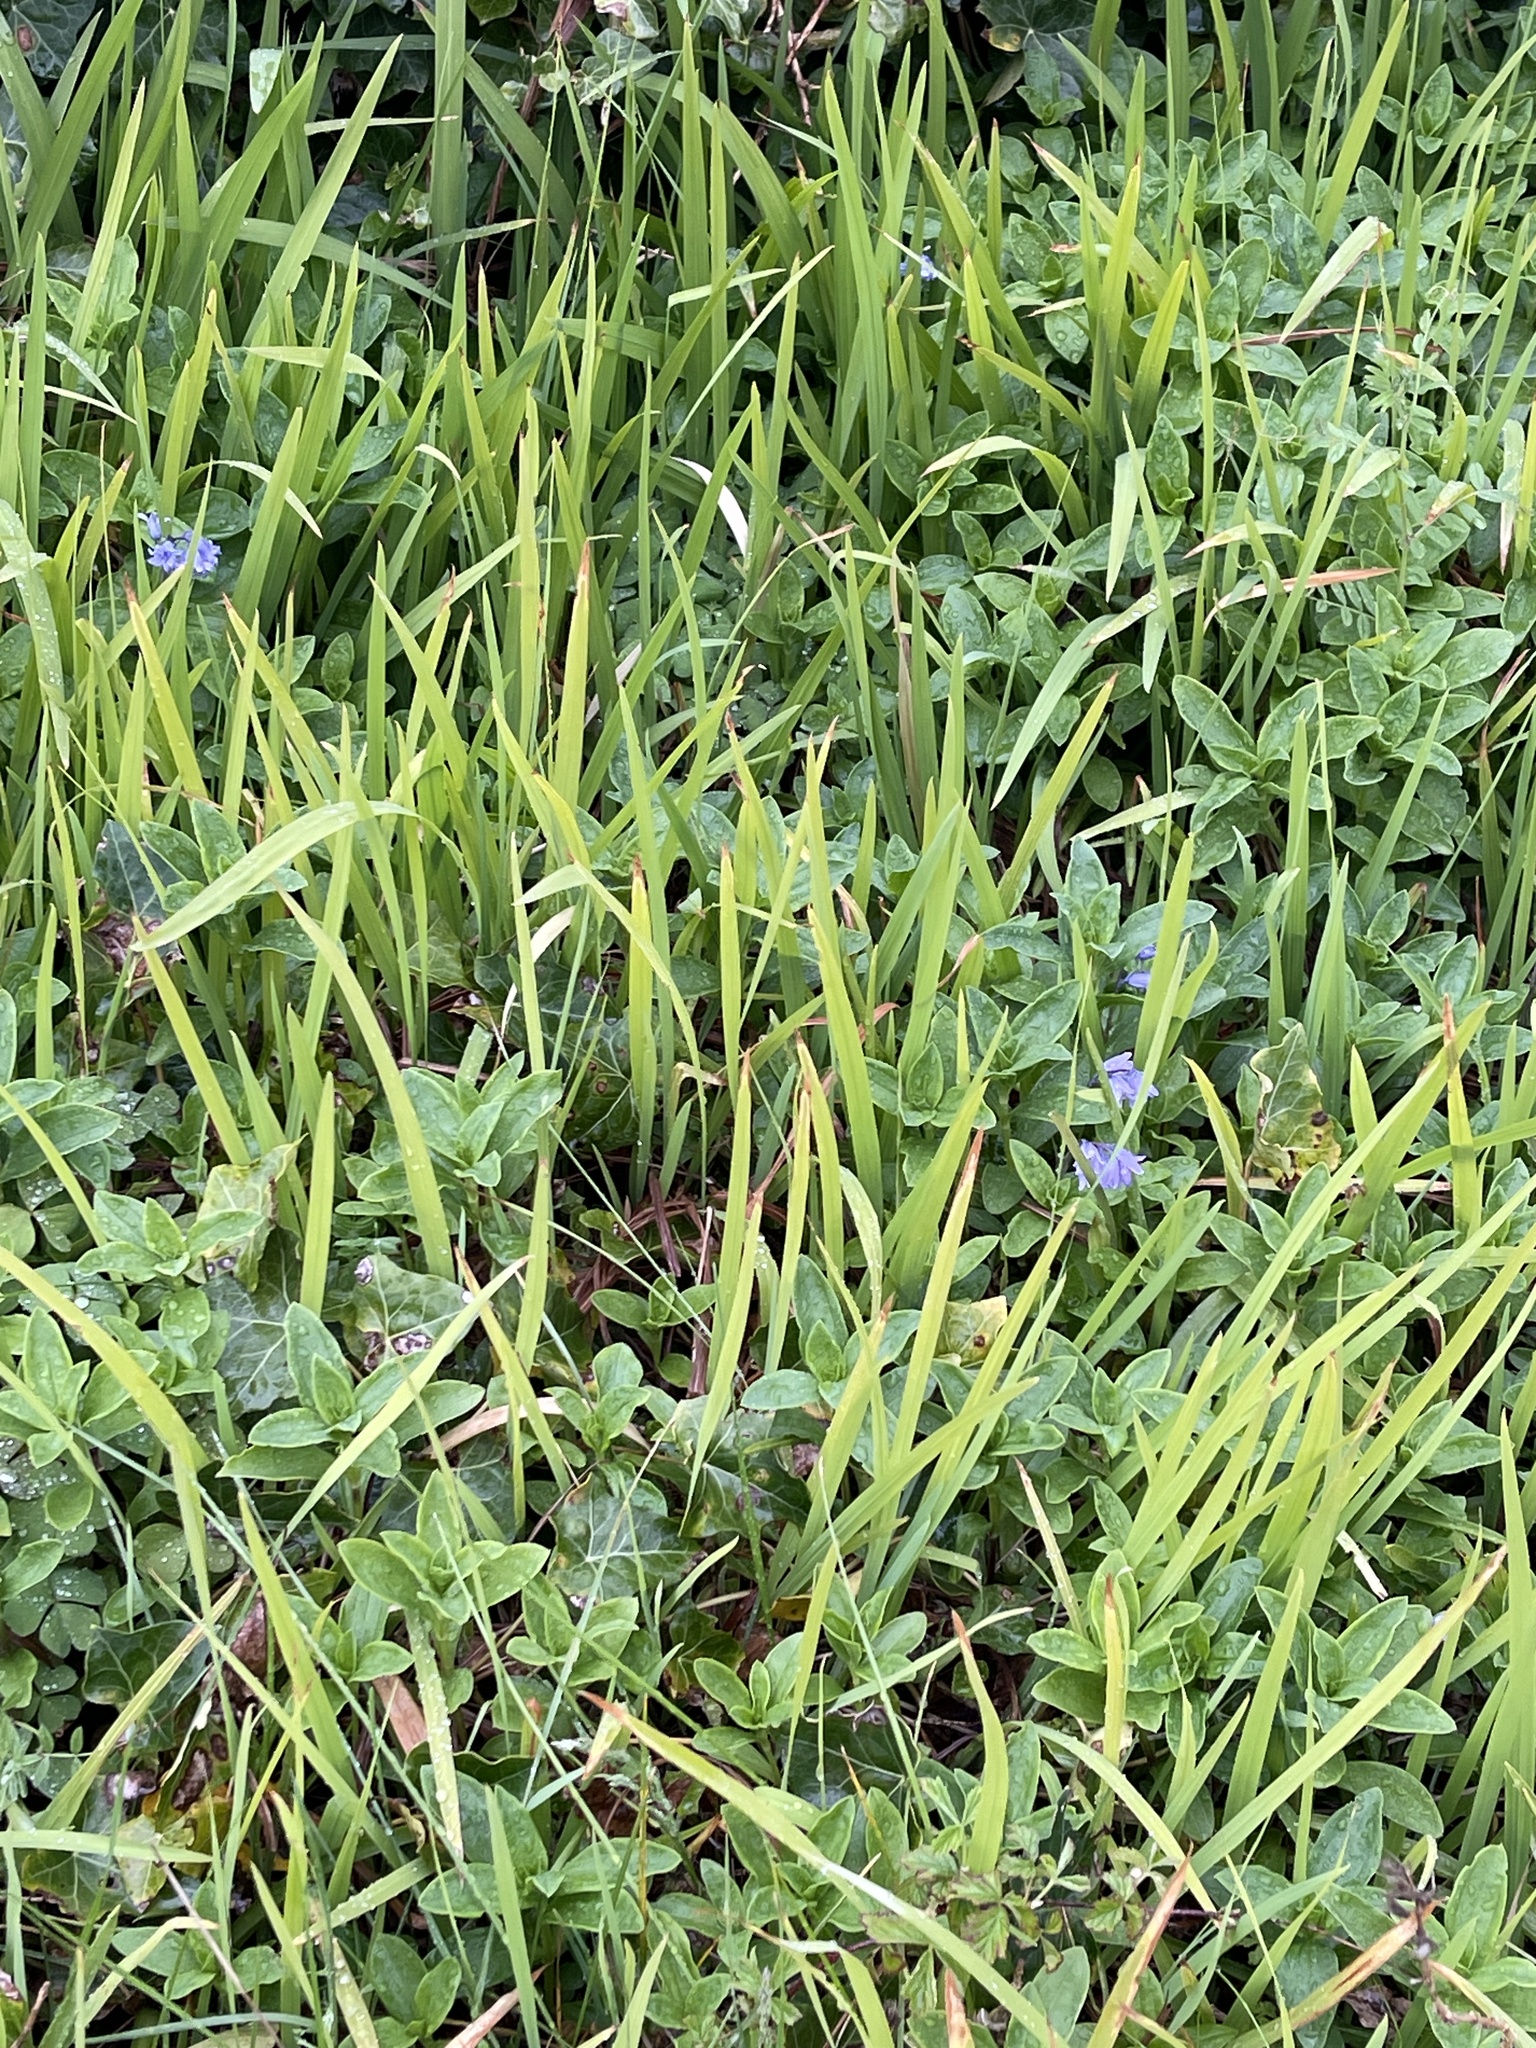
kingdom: Plantae
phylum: Tracheophyta
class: Liliopsida
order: Asparagales
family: Iridaceae
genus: Crocosmia
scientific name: Crocosmia crocosmiiflora
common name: Montbretia
